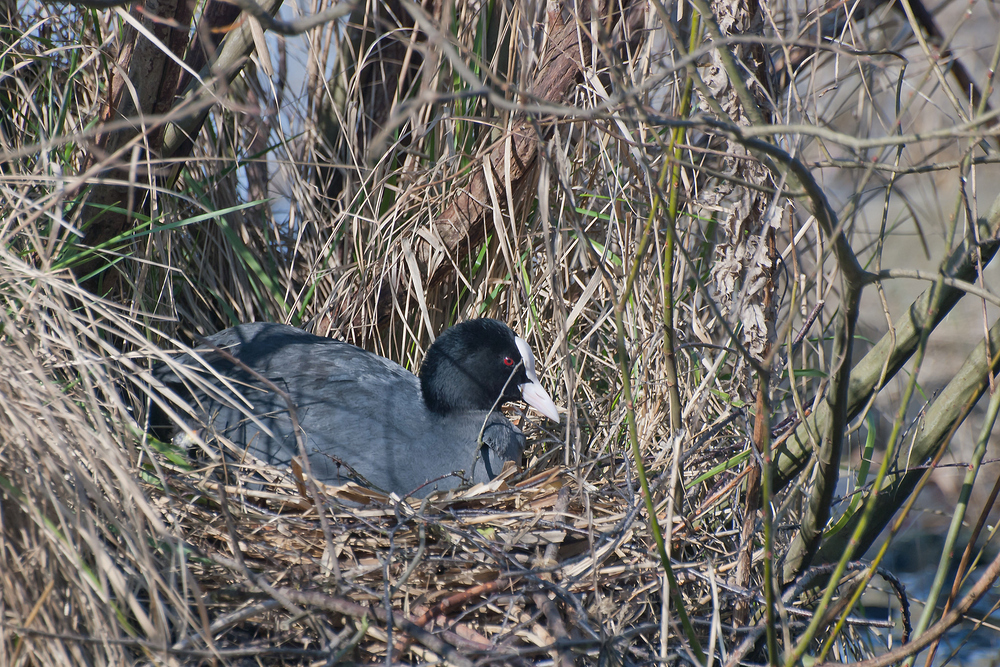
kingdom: Animalia
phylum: Chordata
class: Aves
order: Gruiformes
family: Rallidae
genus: Fulica
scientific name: Fulica atra
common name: Eurasian coot
